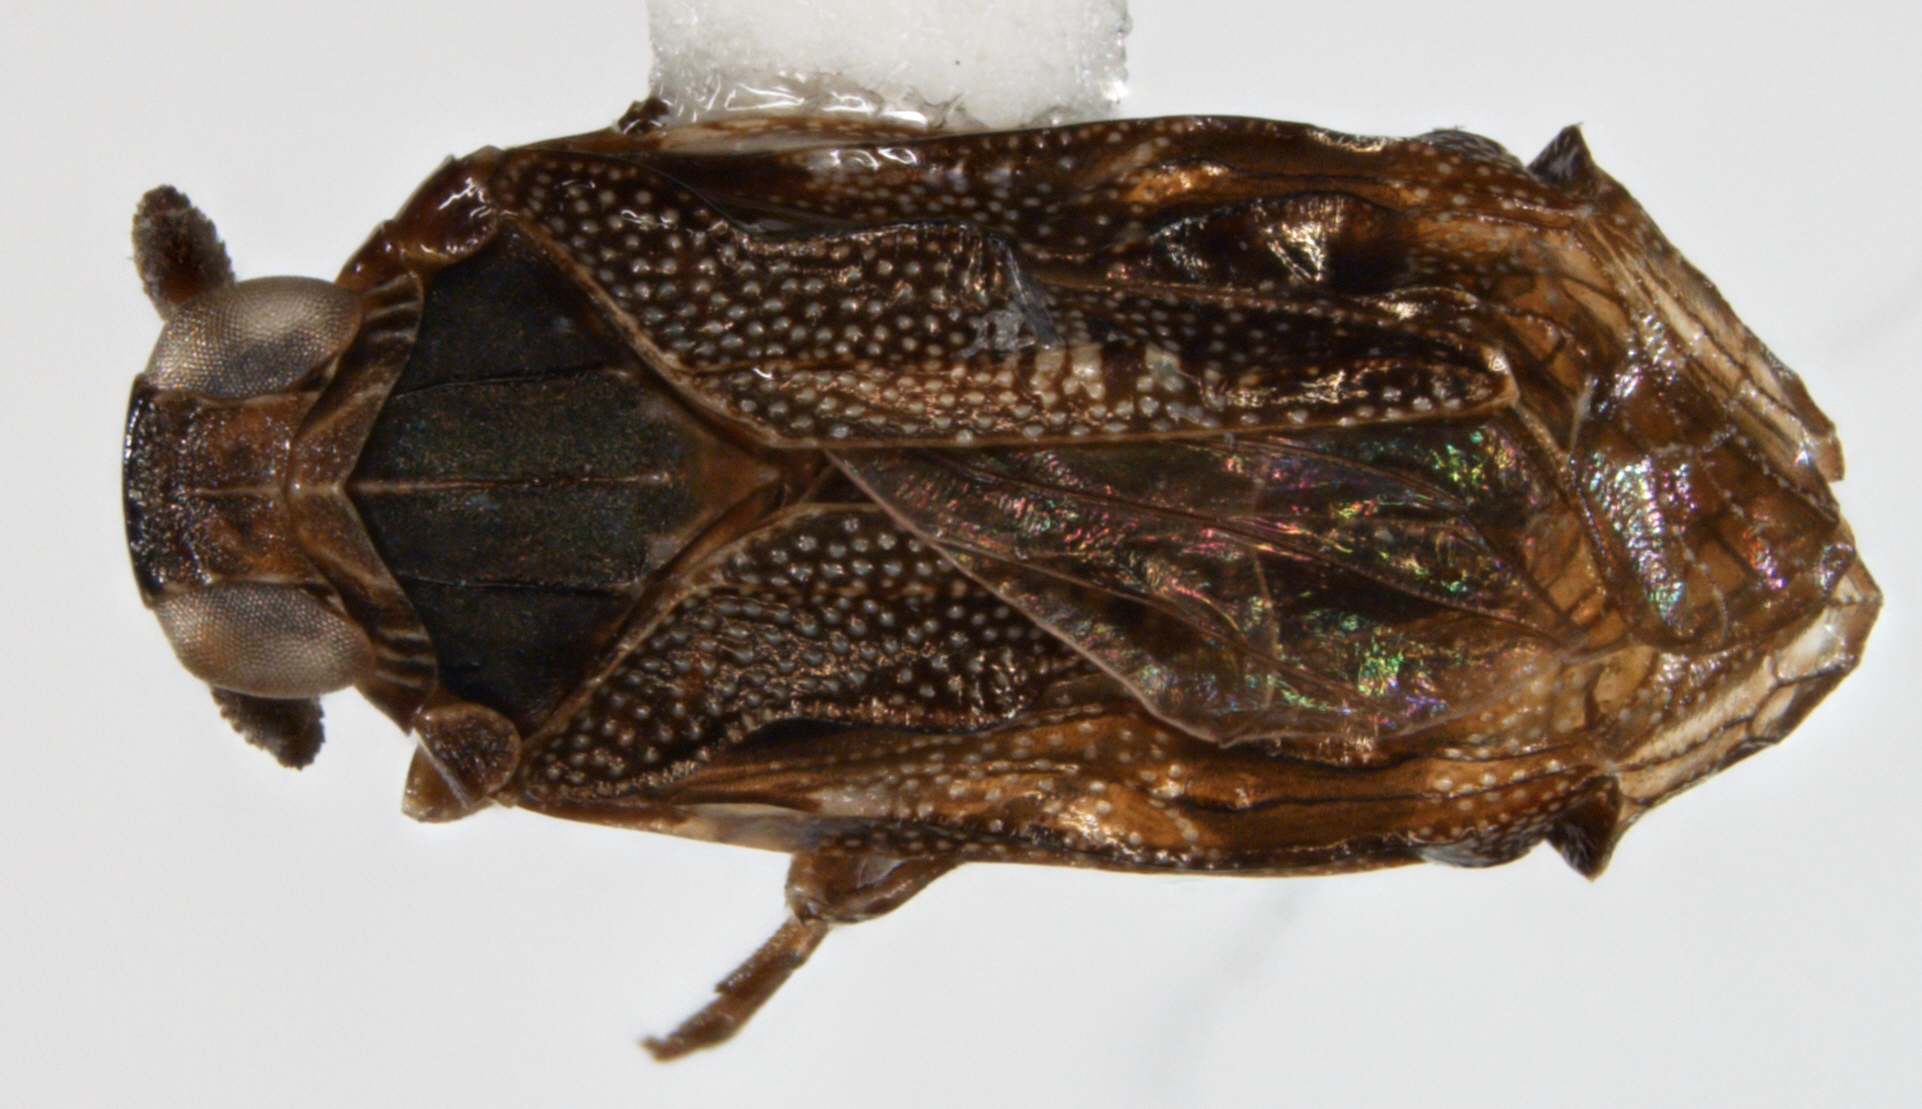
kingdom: Animalia
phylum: Arthropoda
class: Insecta
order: Hemiptera
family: Achilidae
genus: Haitiana
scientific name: Haitiana nigrita
